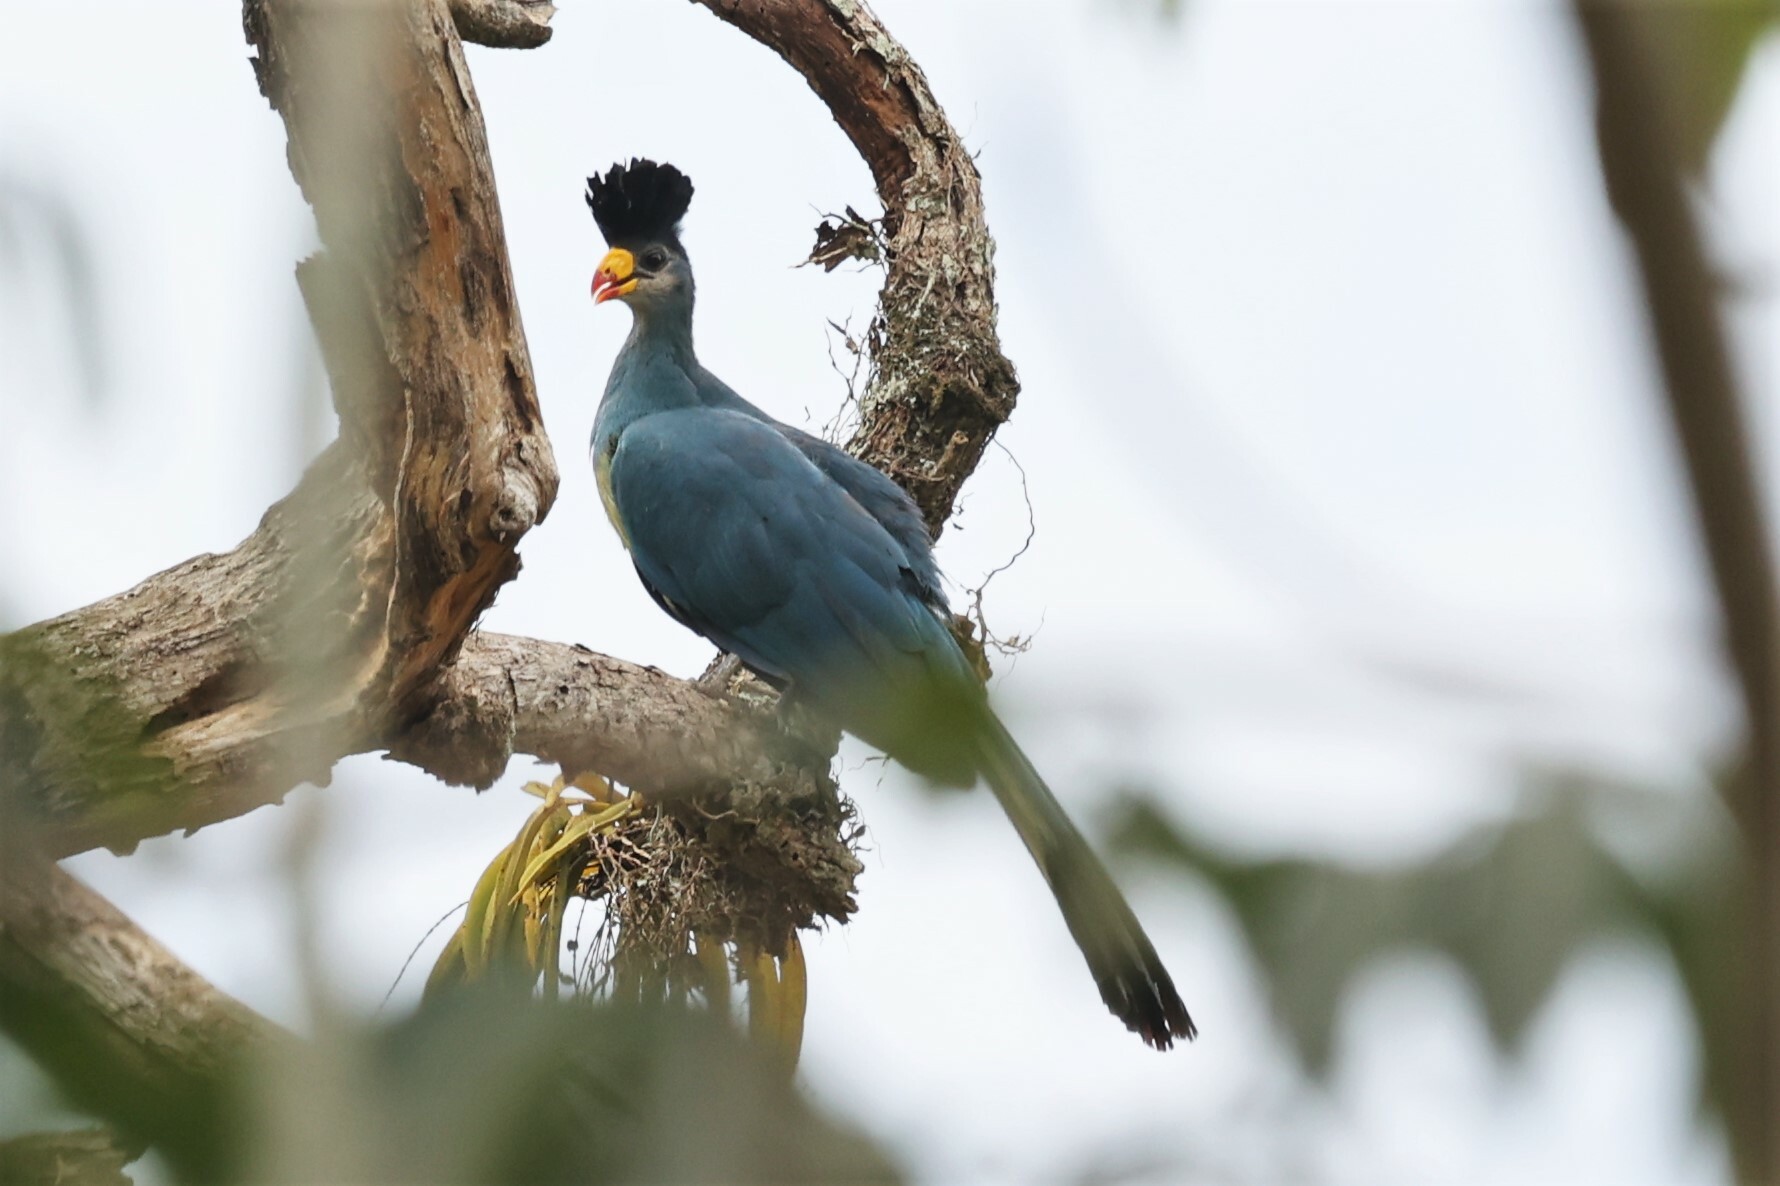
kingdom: Animalia
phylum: Chordata
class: Aves
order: Musophagiformes
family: Musophagidae
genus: Corythaeola
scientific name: Corythaeola cristata
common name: Great blue turaco
